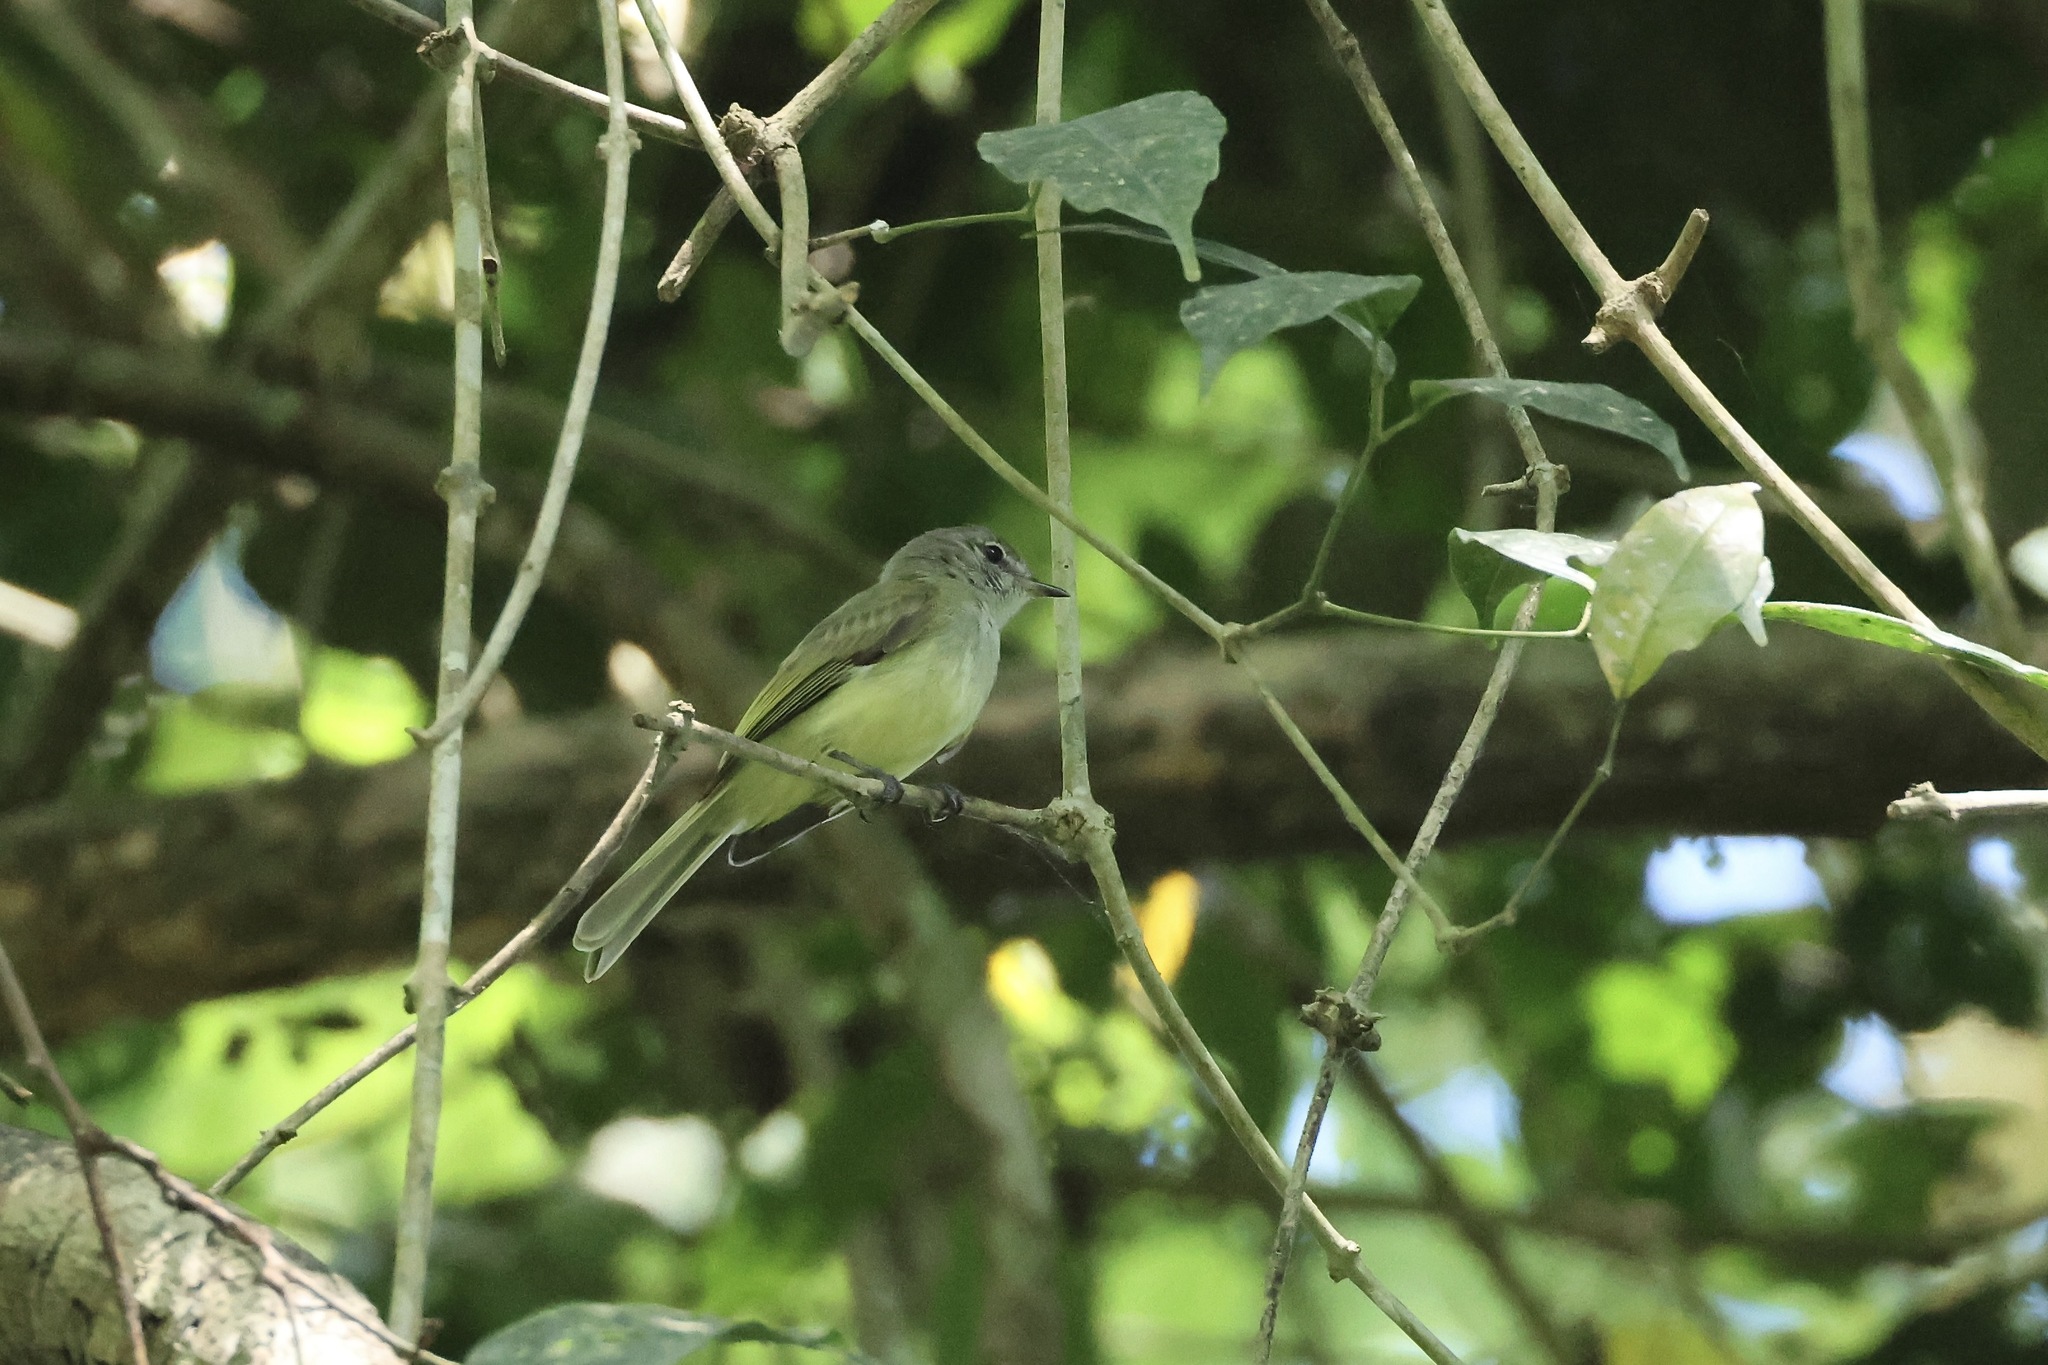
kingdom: Animalia
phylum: Chordata
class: Aves
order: Passeriformes
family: Tyrannidae
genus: Myiopagis
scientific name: Myiopagis viridicata
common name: Greenish elaenia
